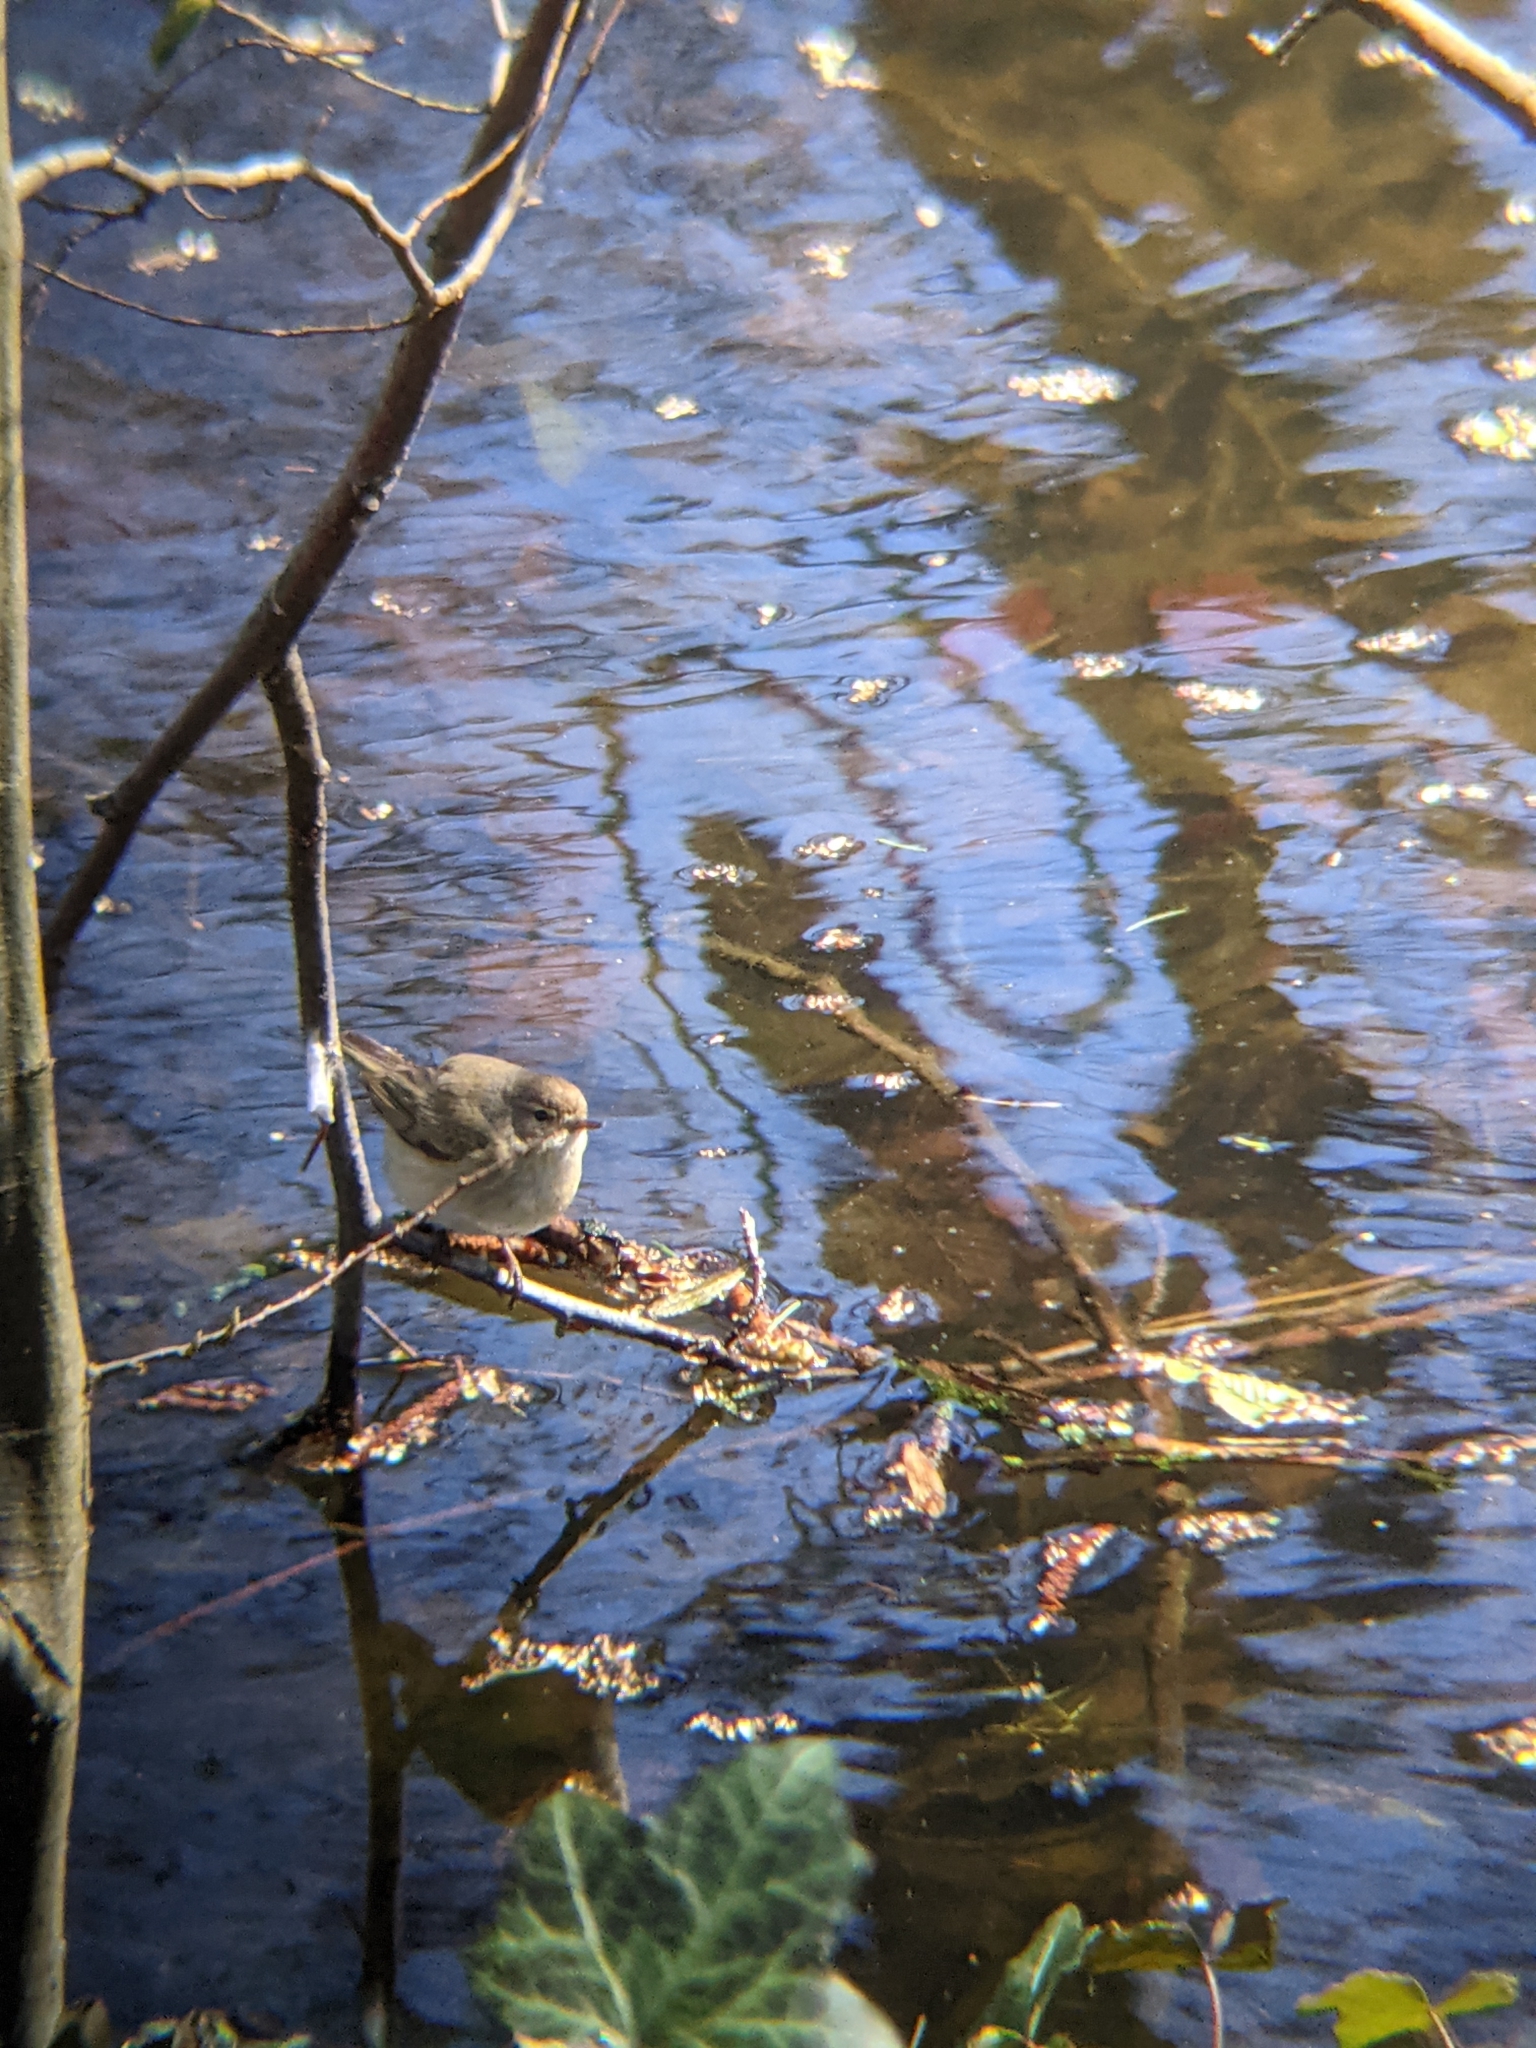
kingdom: Animalia
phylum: Chordata
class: Aves
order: Passeriformes
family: Phylloscopidae
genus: Phylloscopus
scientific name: Phylloscopus collybita
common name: Common chiffchaff
